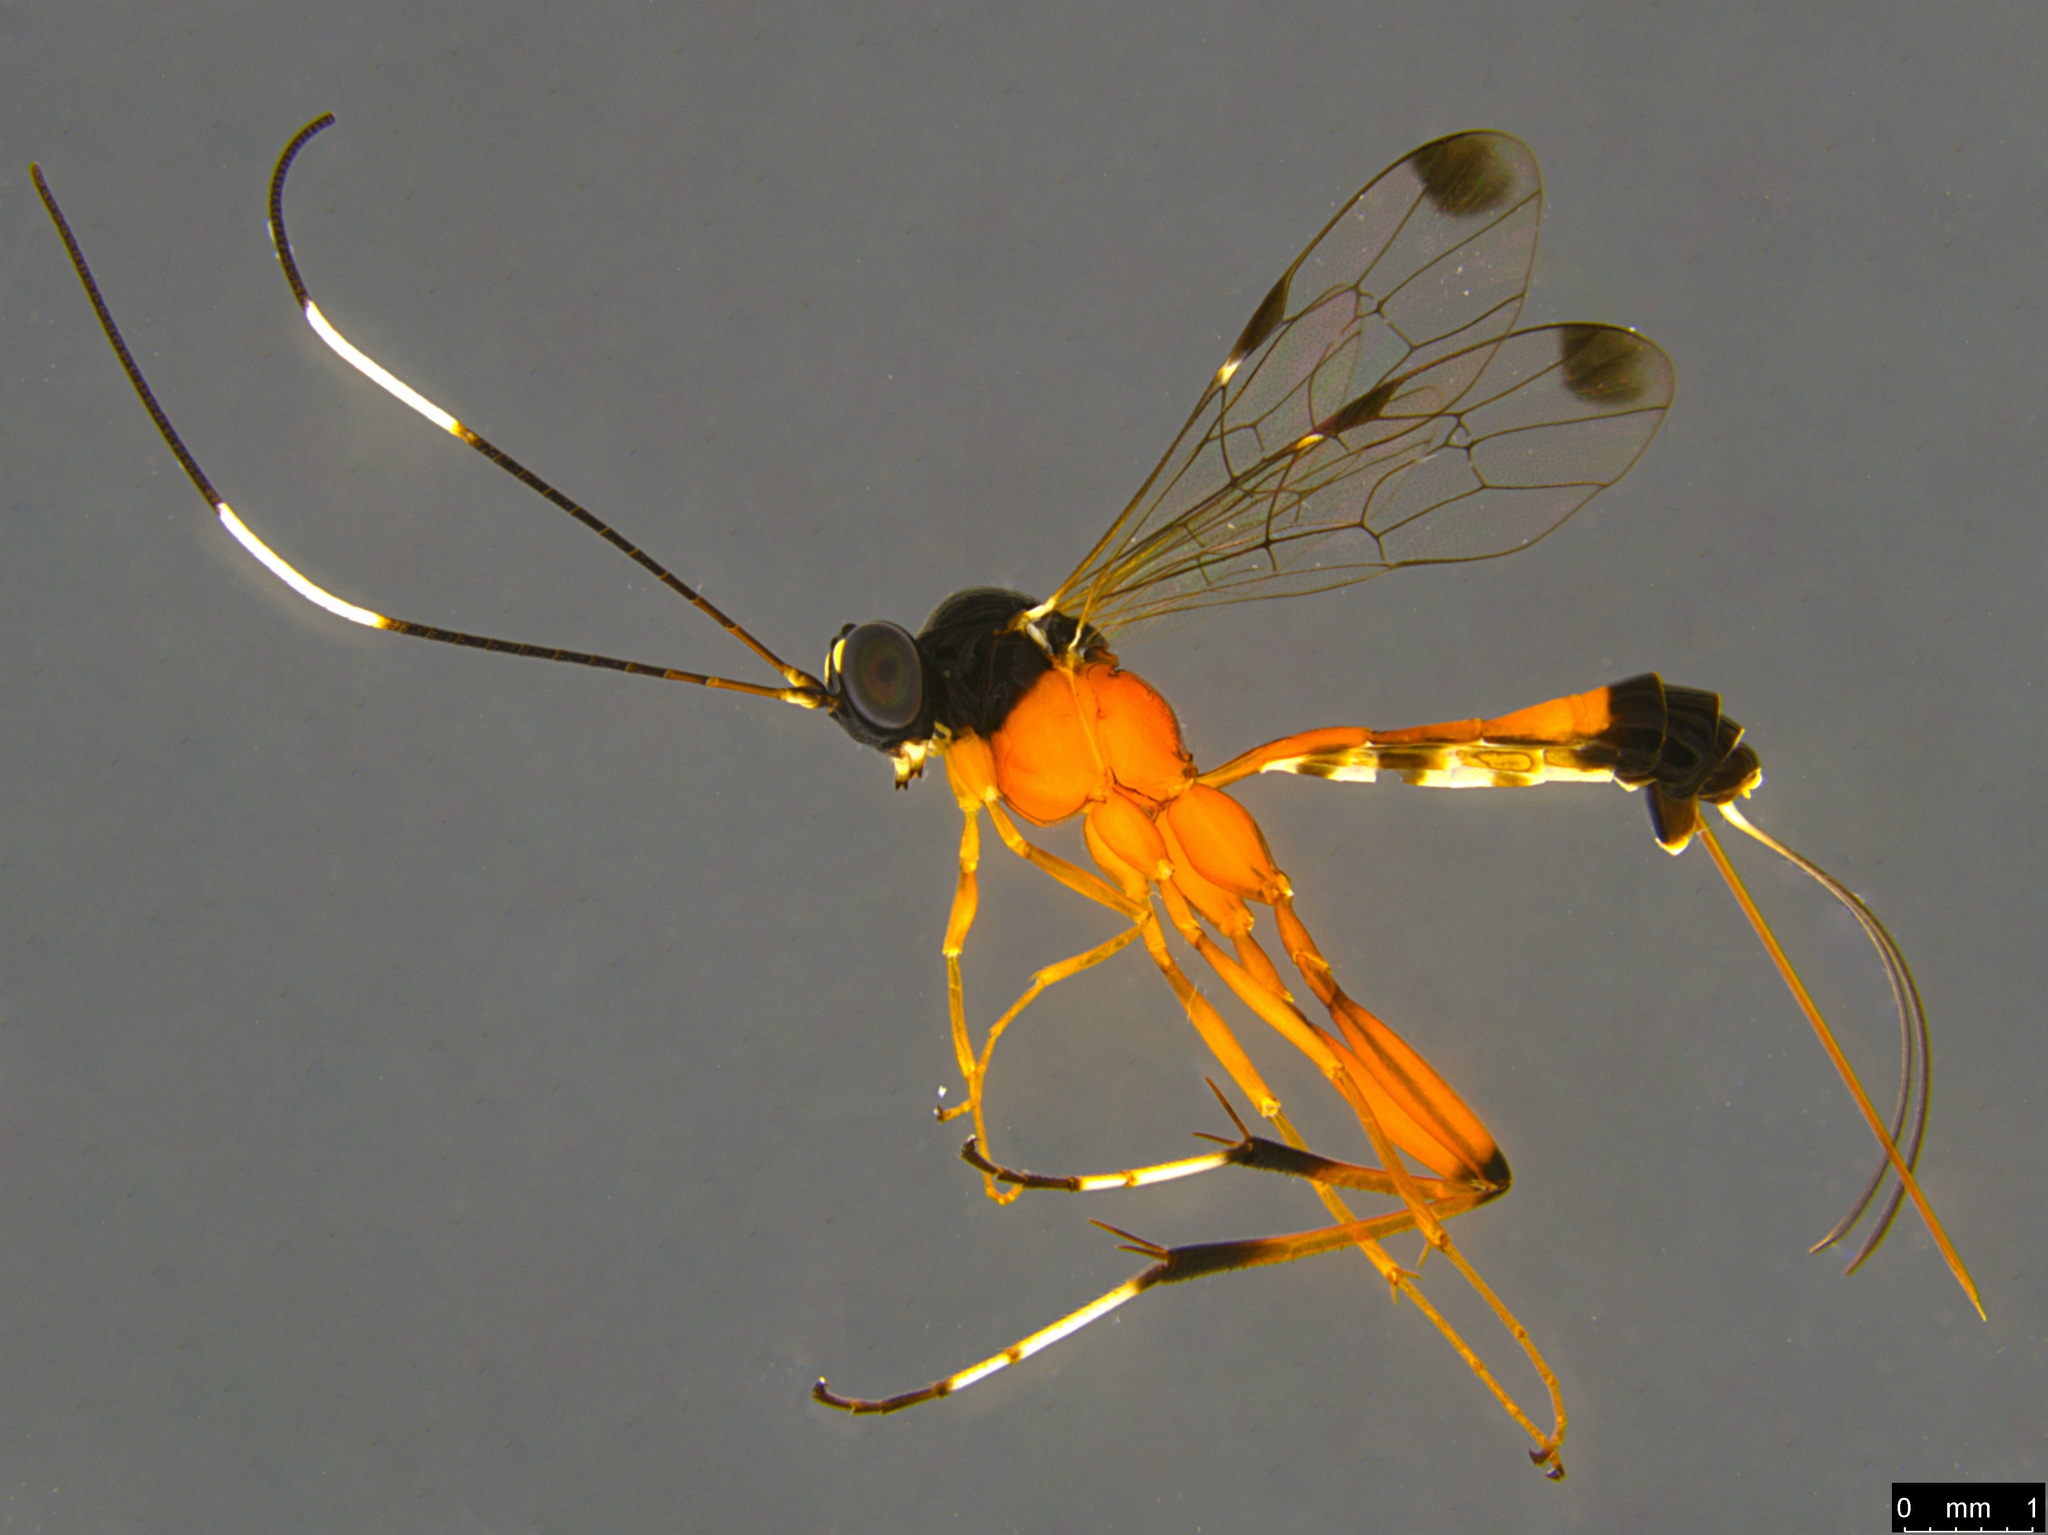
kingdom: Animalia
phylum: Arthropoda
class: Insecta
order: Hymenoptera
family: Ichneumonidae
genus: Leptobatopsis
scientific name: Leptobatopsis mesominiata
